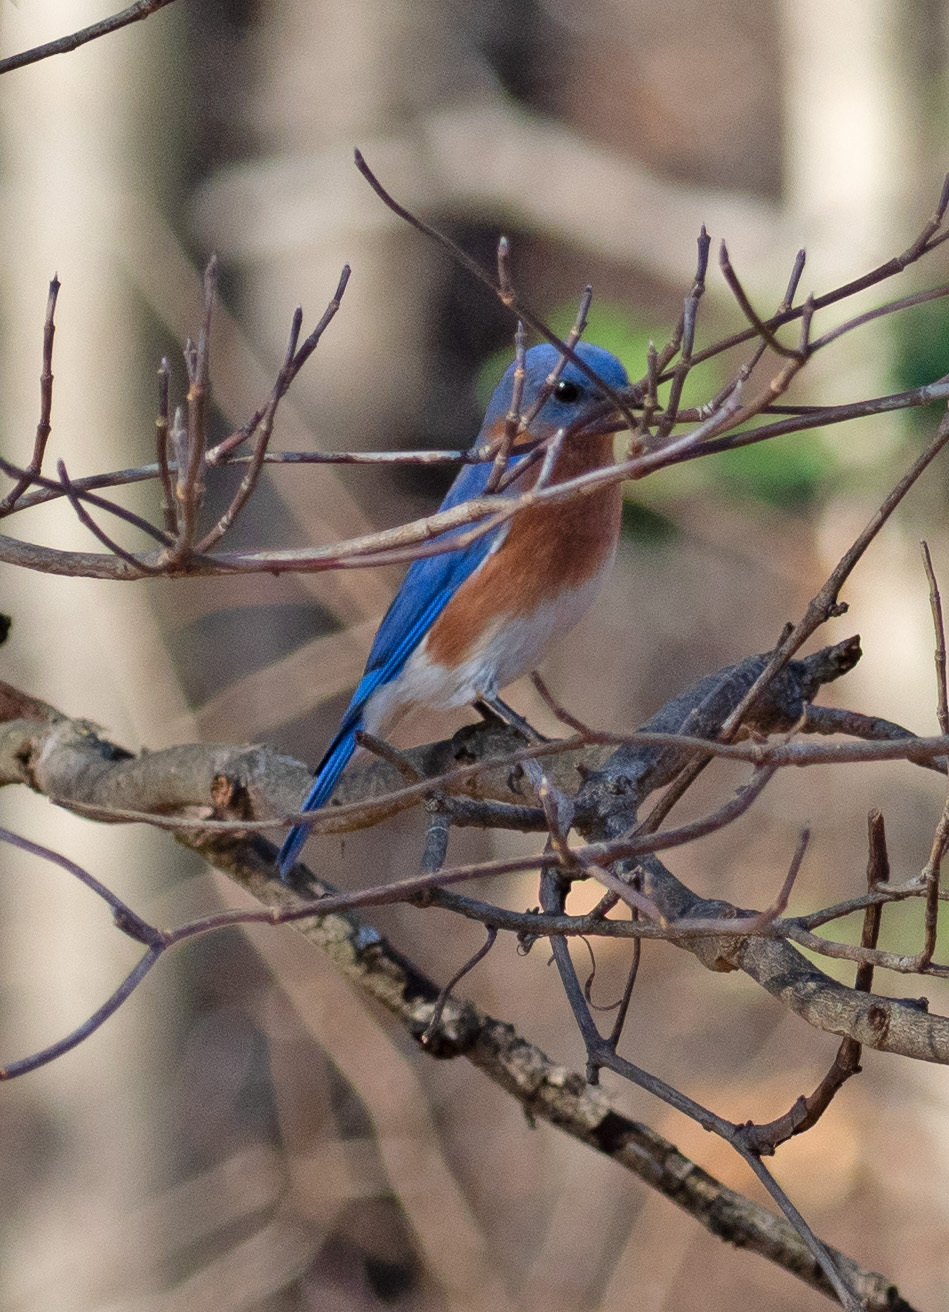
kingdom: Animalia
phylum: Chordata
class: Aves
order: Passeriformes
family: Turdidae
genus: Sialia
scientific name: Sialia sialis
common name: Eastern bluebird
